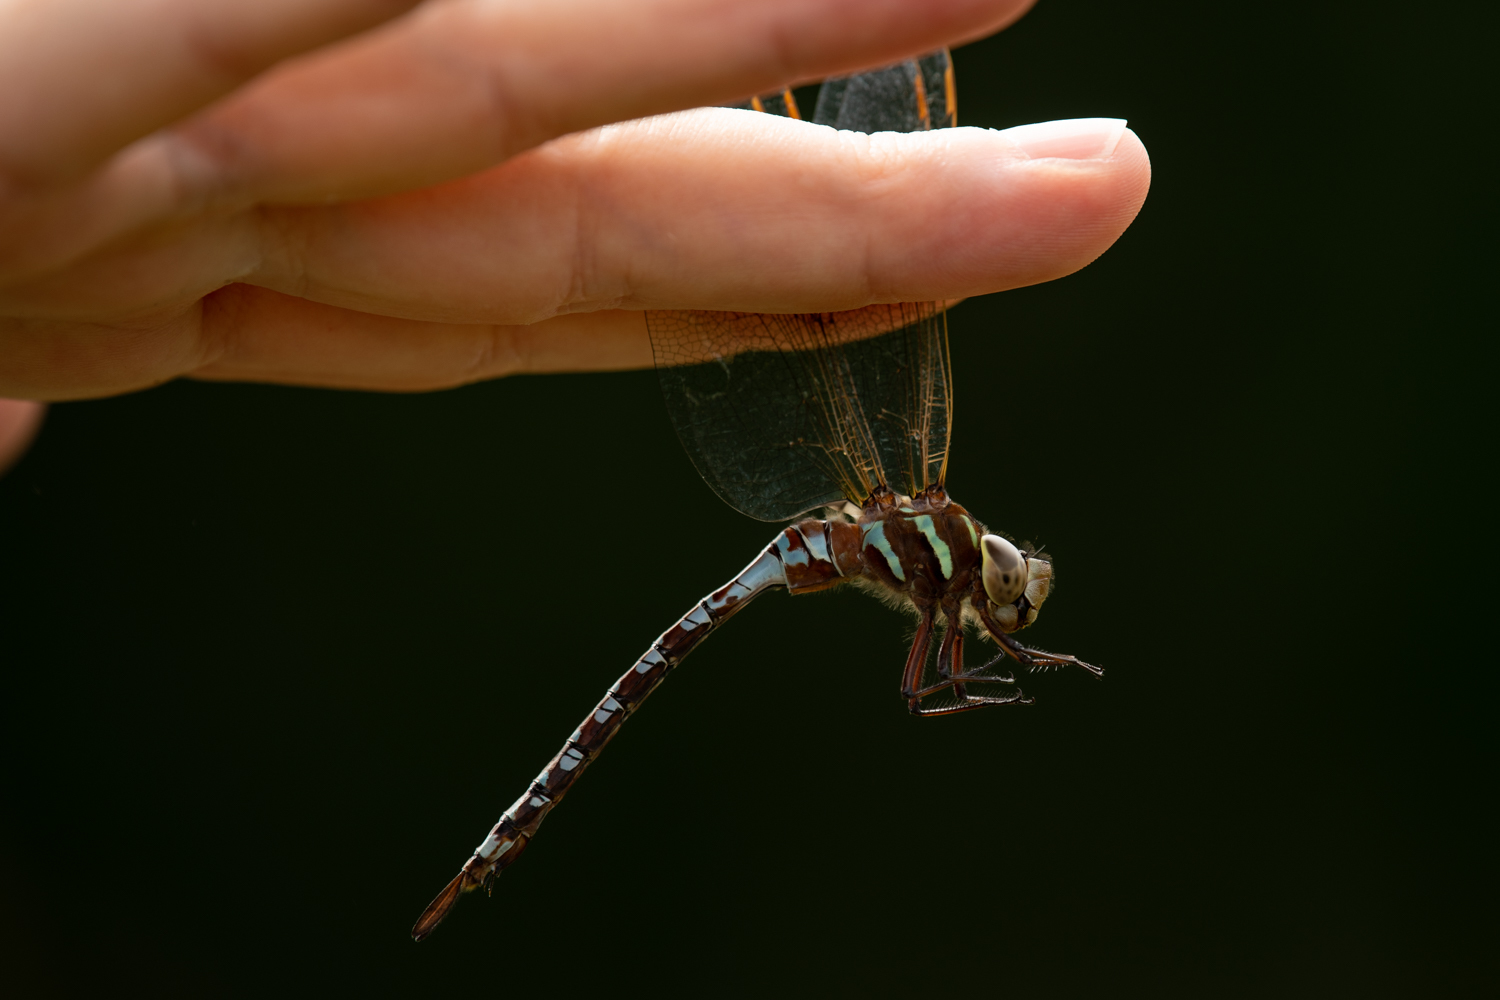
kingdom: Animalia
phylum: Arthropoda
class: Insecta
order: Odonata
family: Aeshnidae
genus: Aeshna
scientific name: Aeshna constricta
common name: Lance-tipped darner
